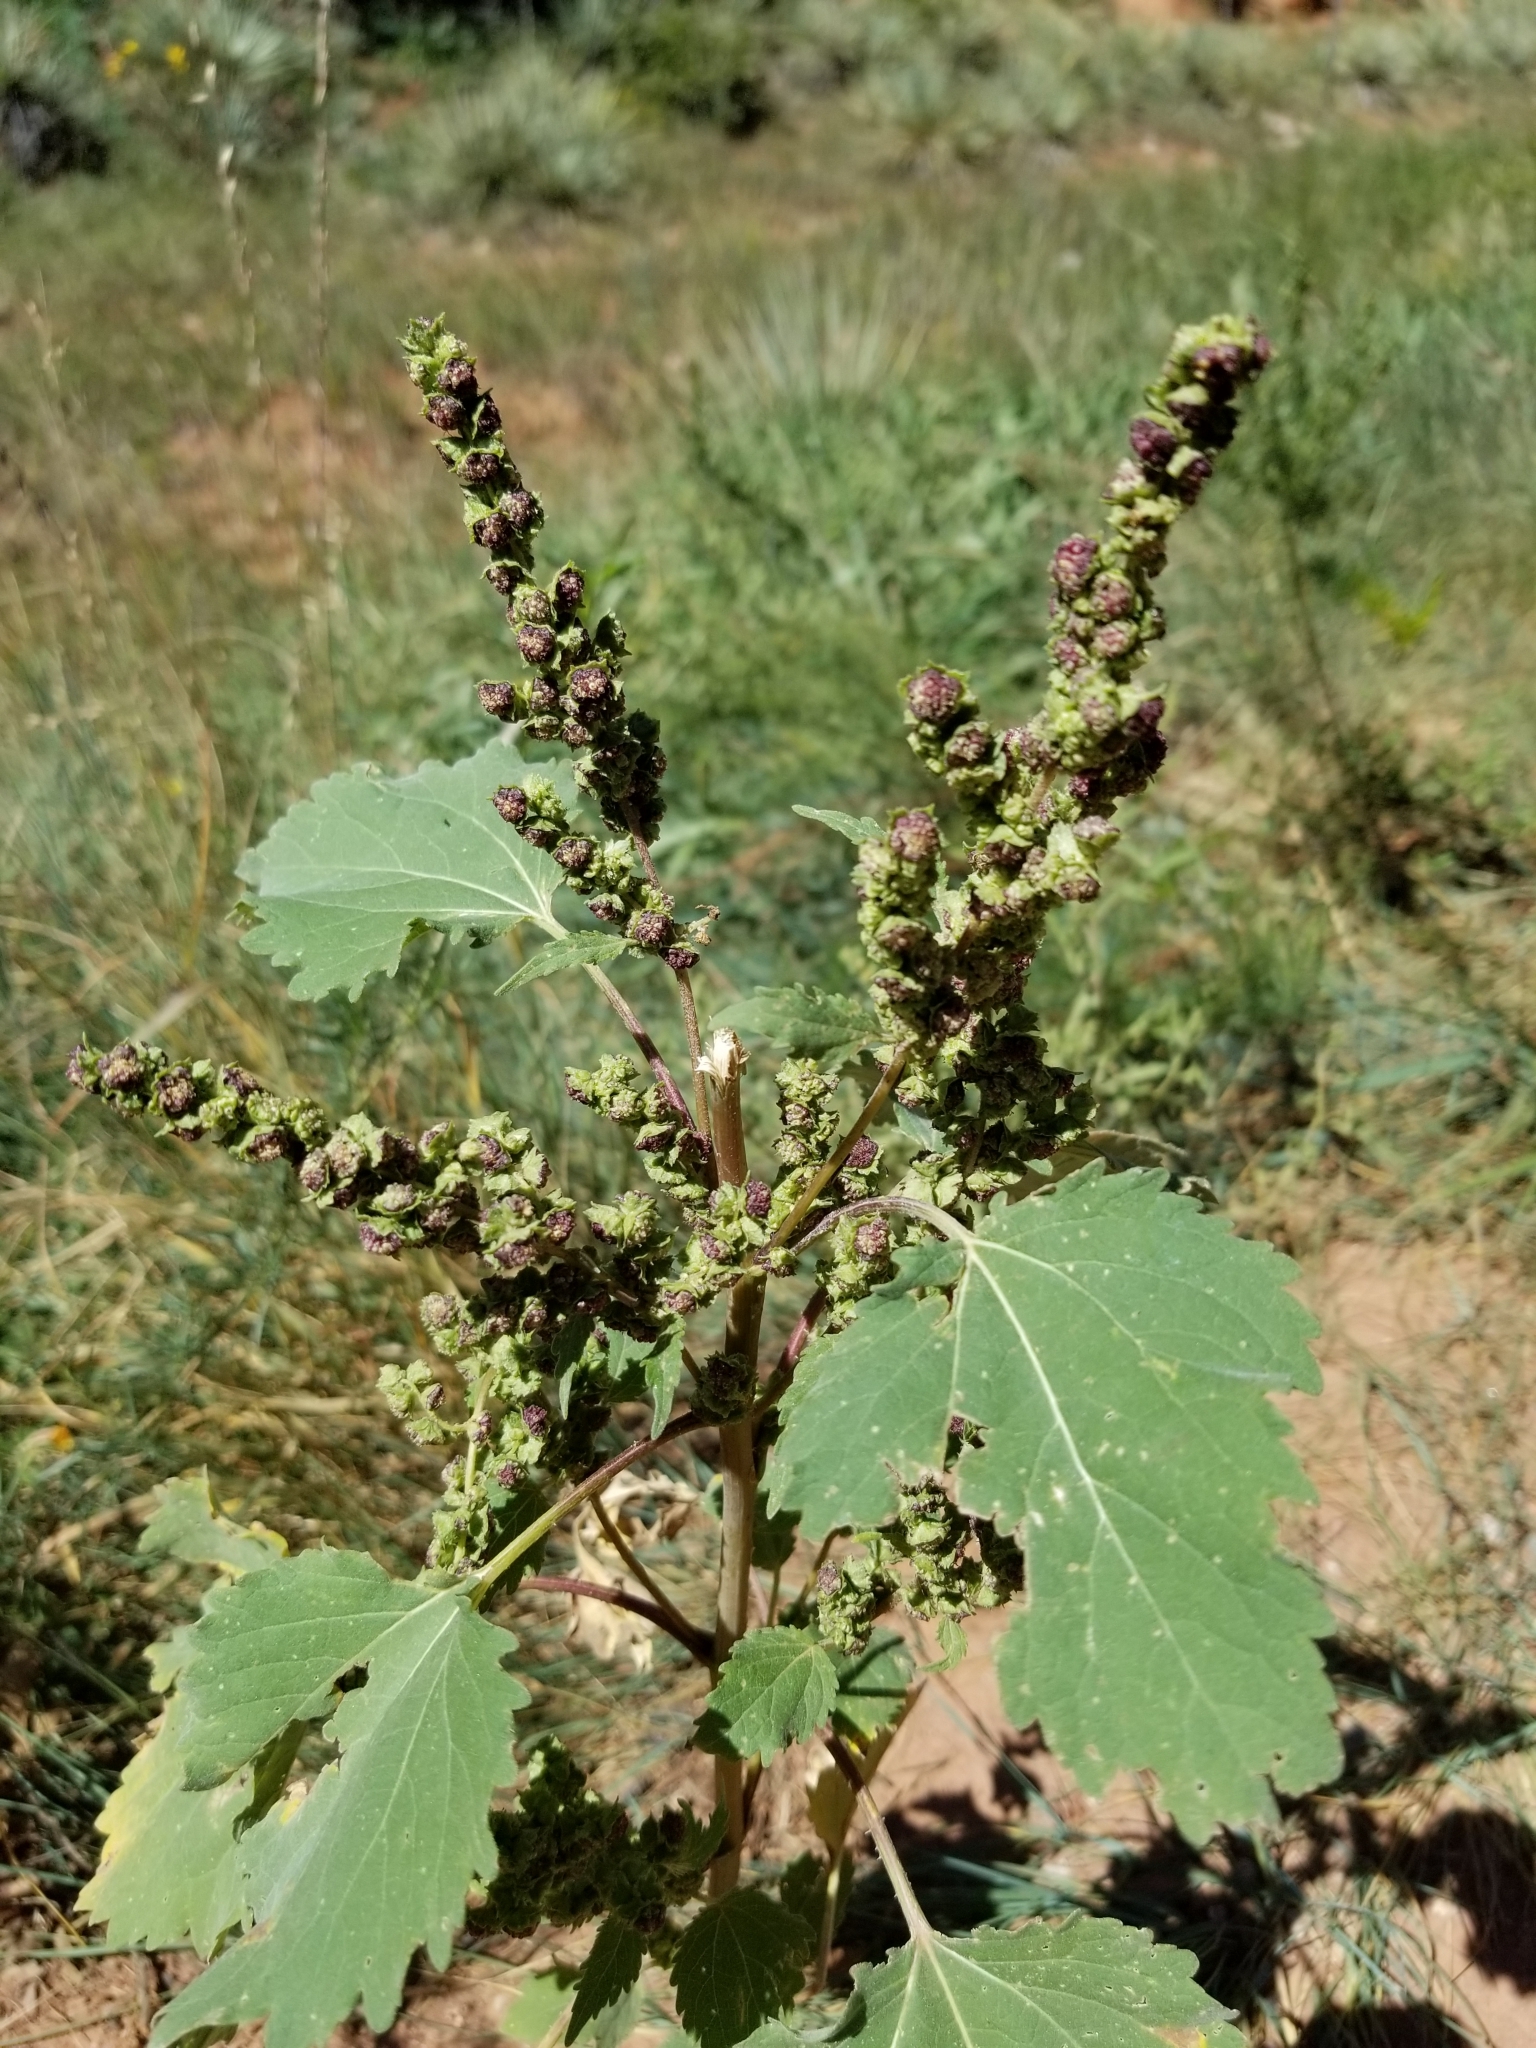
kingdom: Plantae
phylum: Tracheophyta
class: Magnoliopsida
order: Caryophyllales
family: Amaranthaceae
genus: Chenopodium
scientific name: Chenopodium album
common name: Fat-hen
